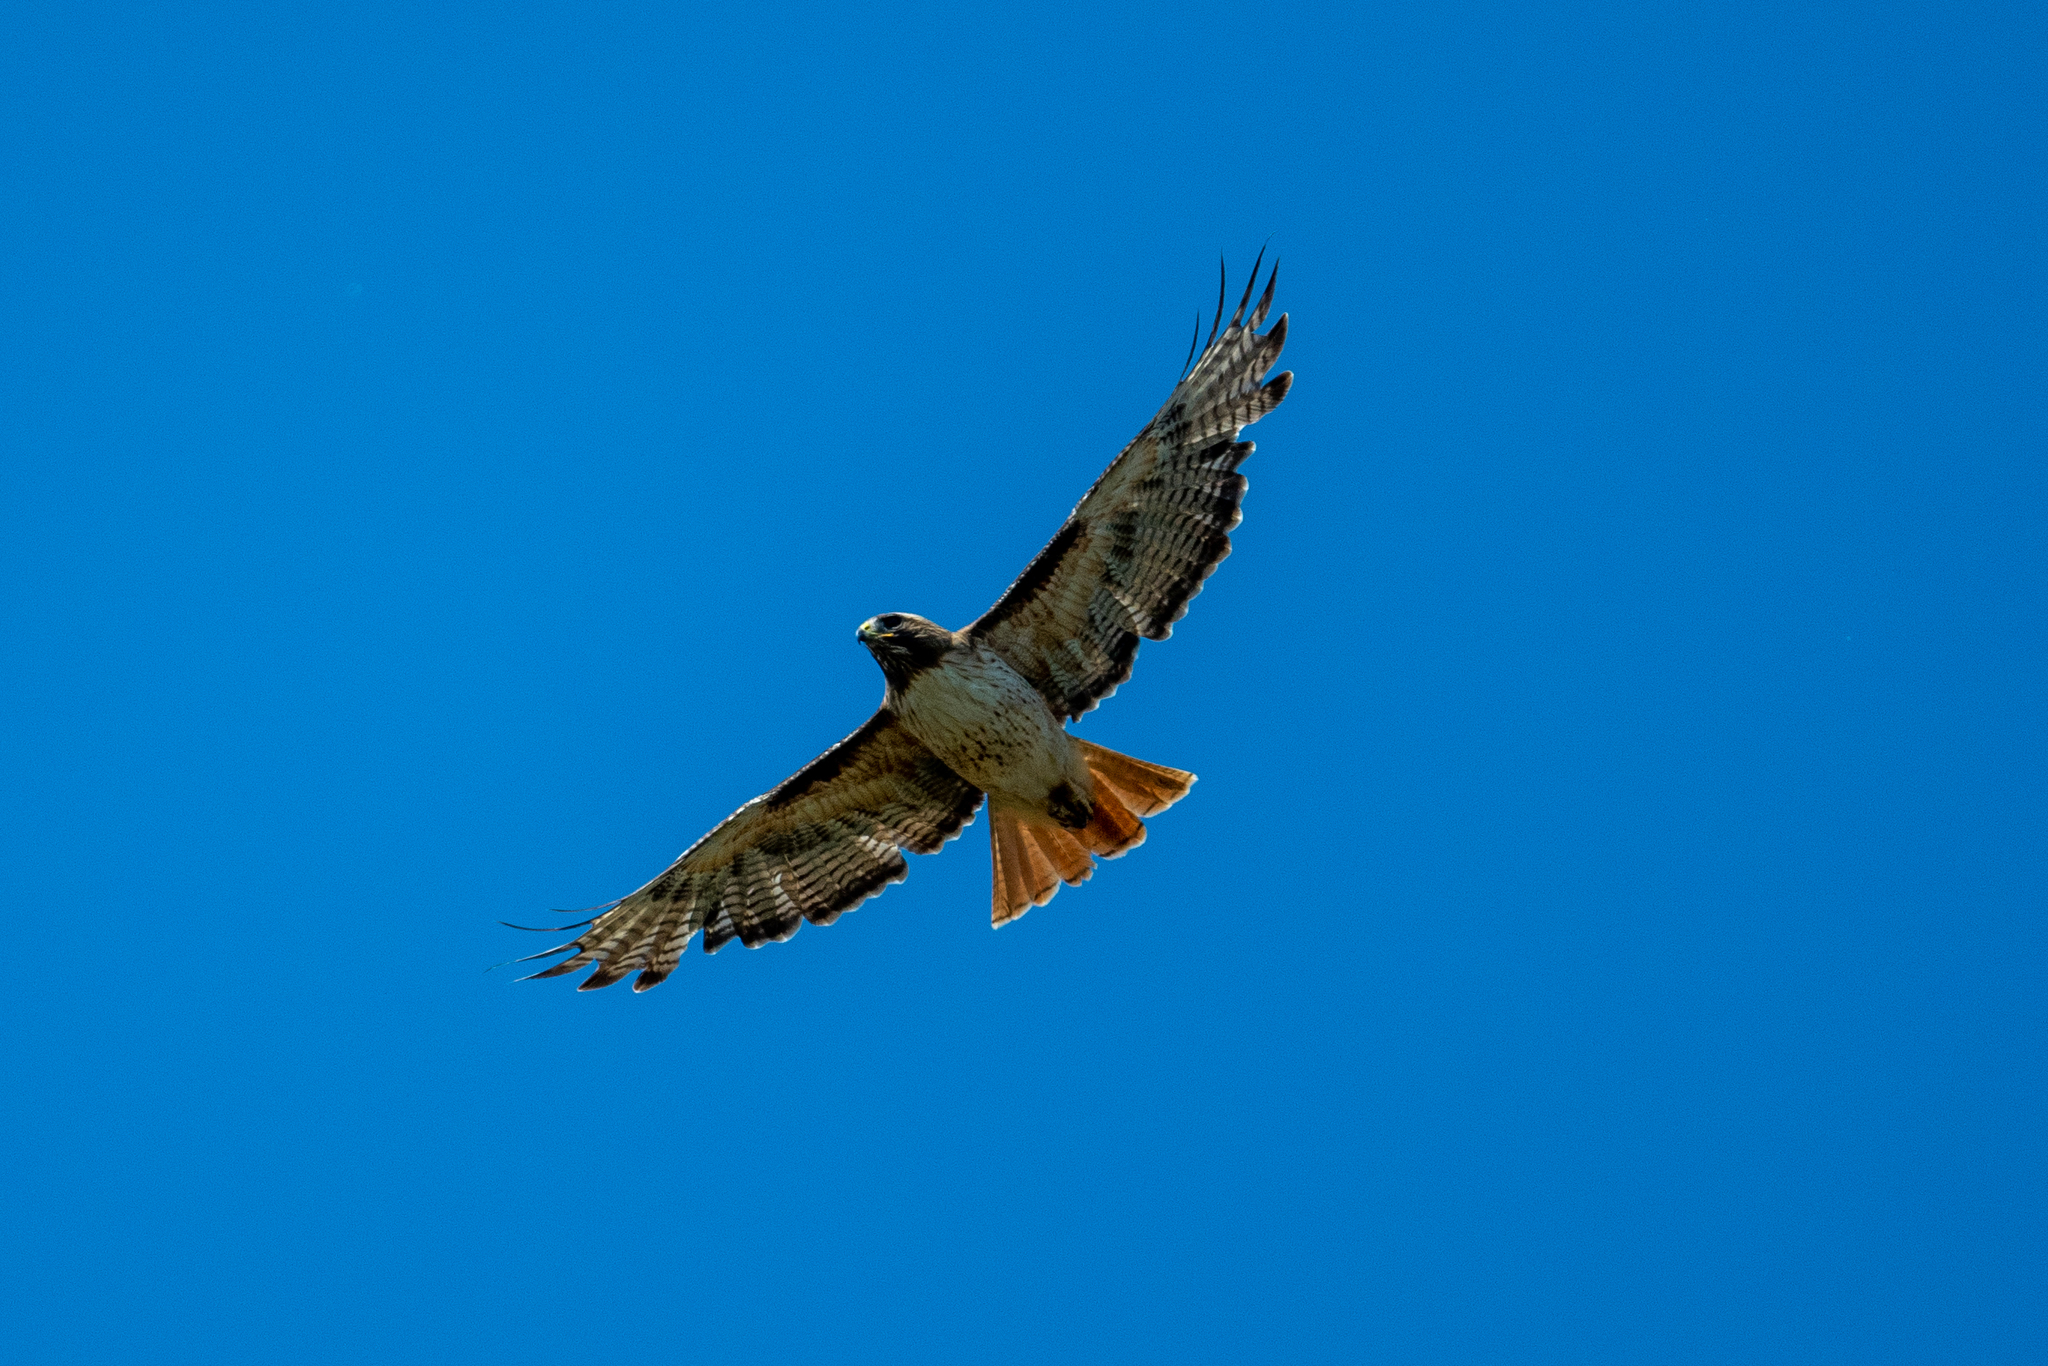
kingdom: Animalia
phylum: Chordata
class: Aves
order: Accipitriformes
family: Accipitridae
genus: Buteo
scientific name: Buteo jamaicensis
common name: Red-tailed hawk
